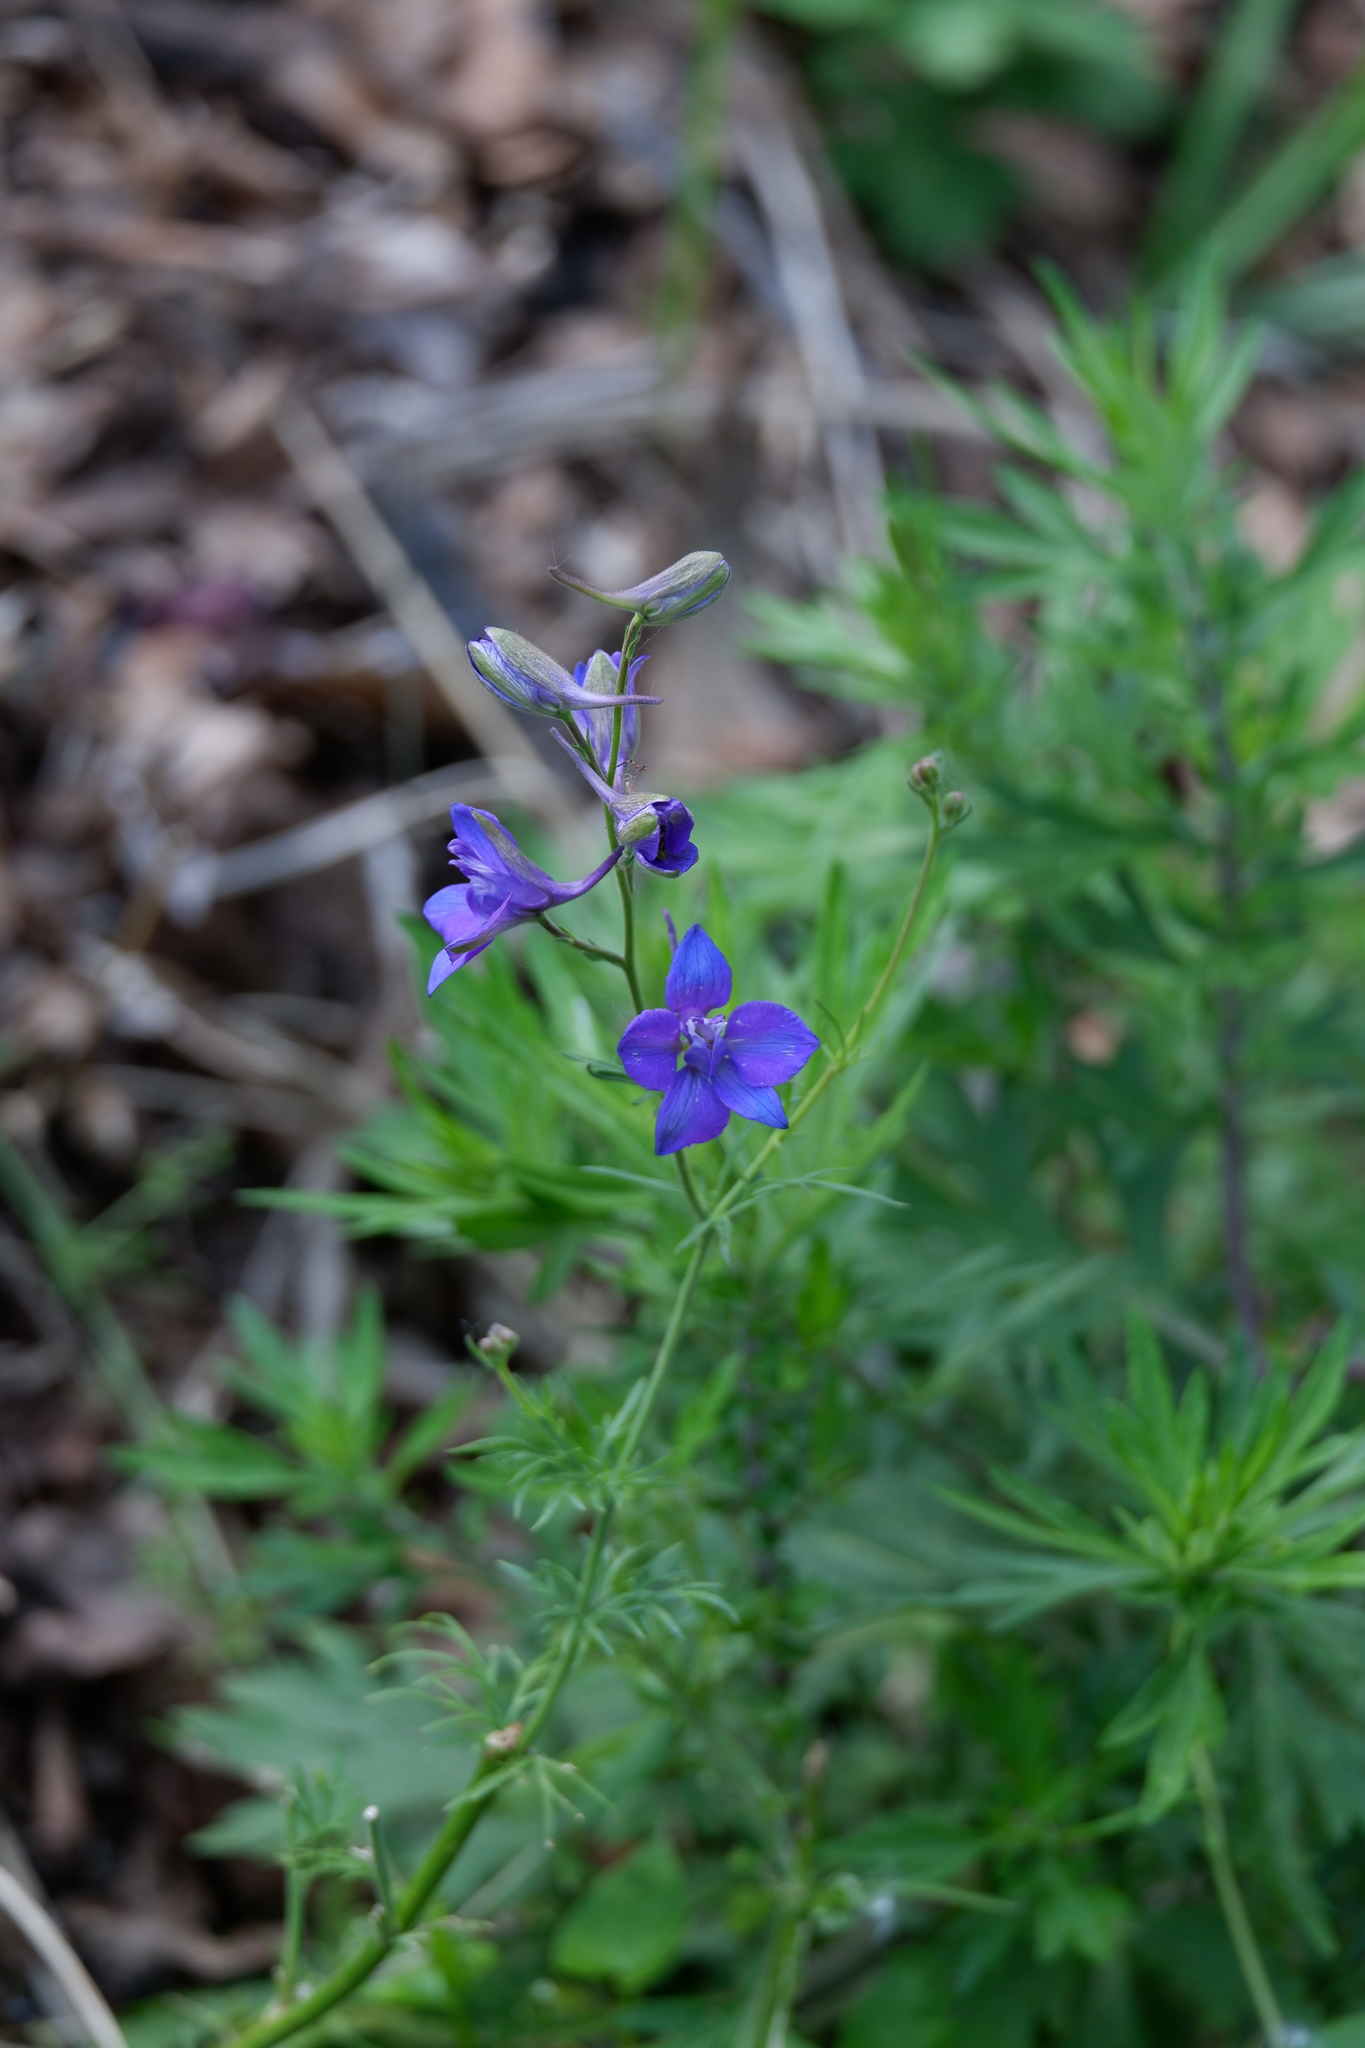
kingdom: Plantae
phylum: Tracheophyta
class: Magnoliopsida
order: Ranunculales
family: Ranunculaceae
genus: Delphinium
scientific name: Delphinium ajacis
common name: Doubtful knight's-spur
